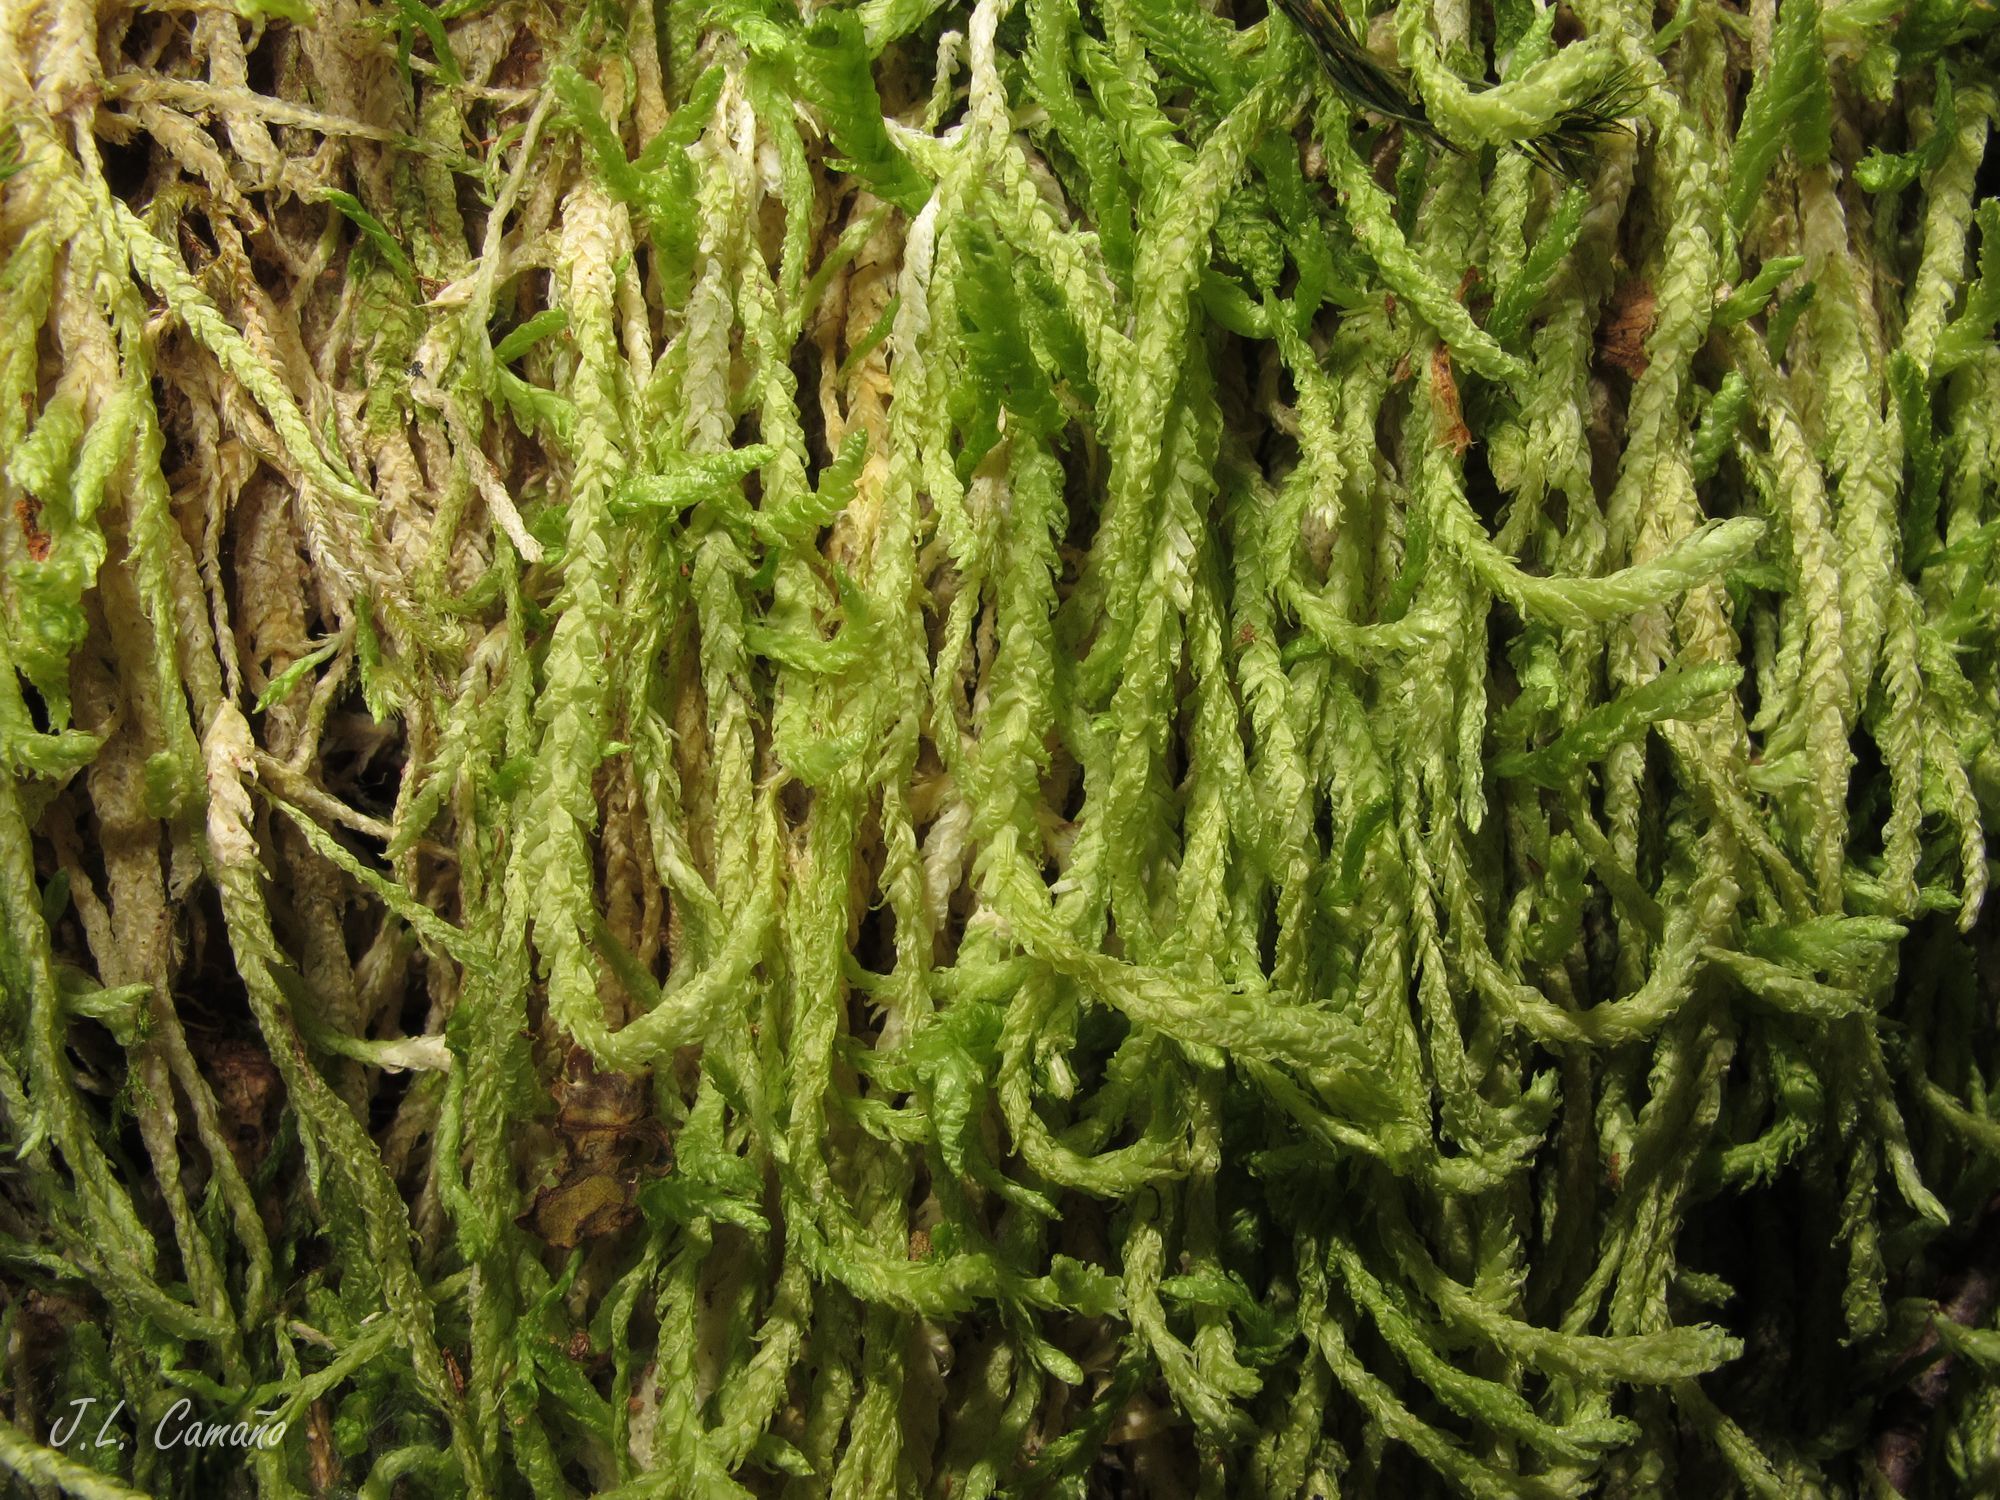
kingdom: Plantae
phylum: Bryophyta
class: Bryopsida
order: Hypnales
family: Plagiotheciaceae
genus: Plagiothecium
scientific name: Plagiothecium undulatum
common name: Waved silk-moss
